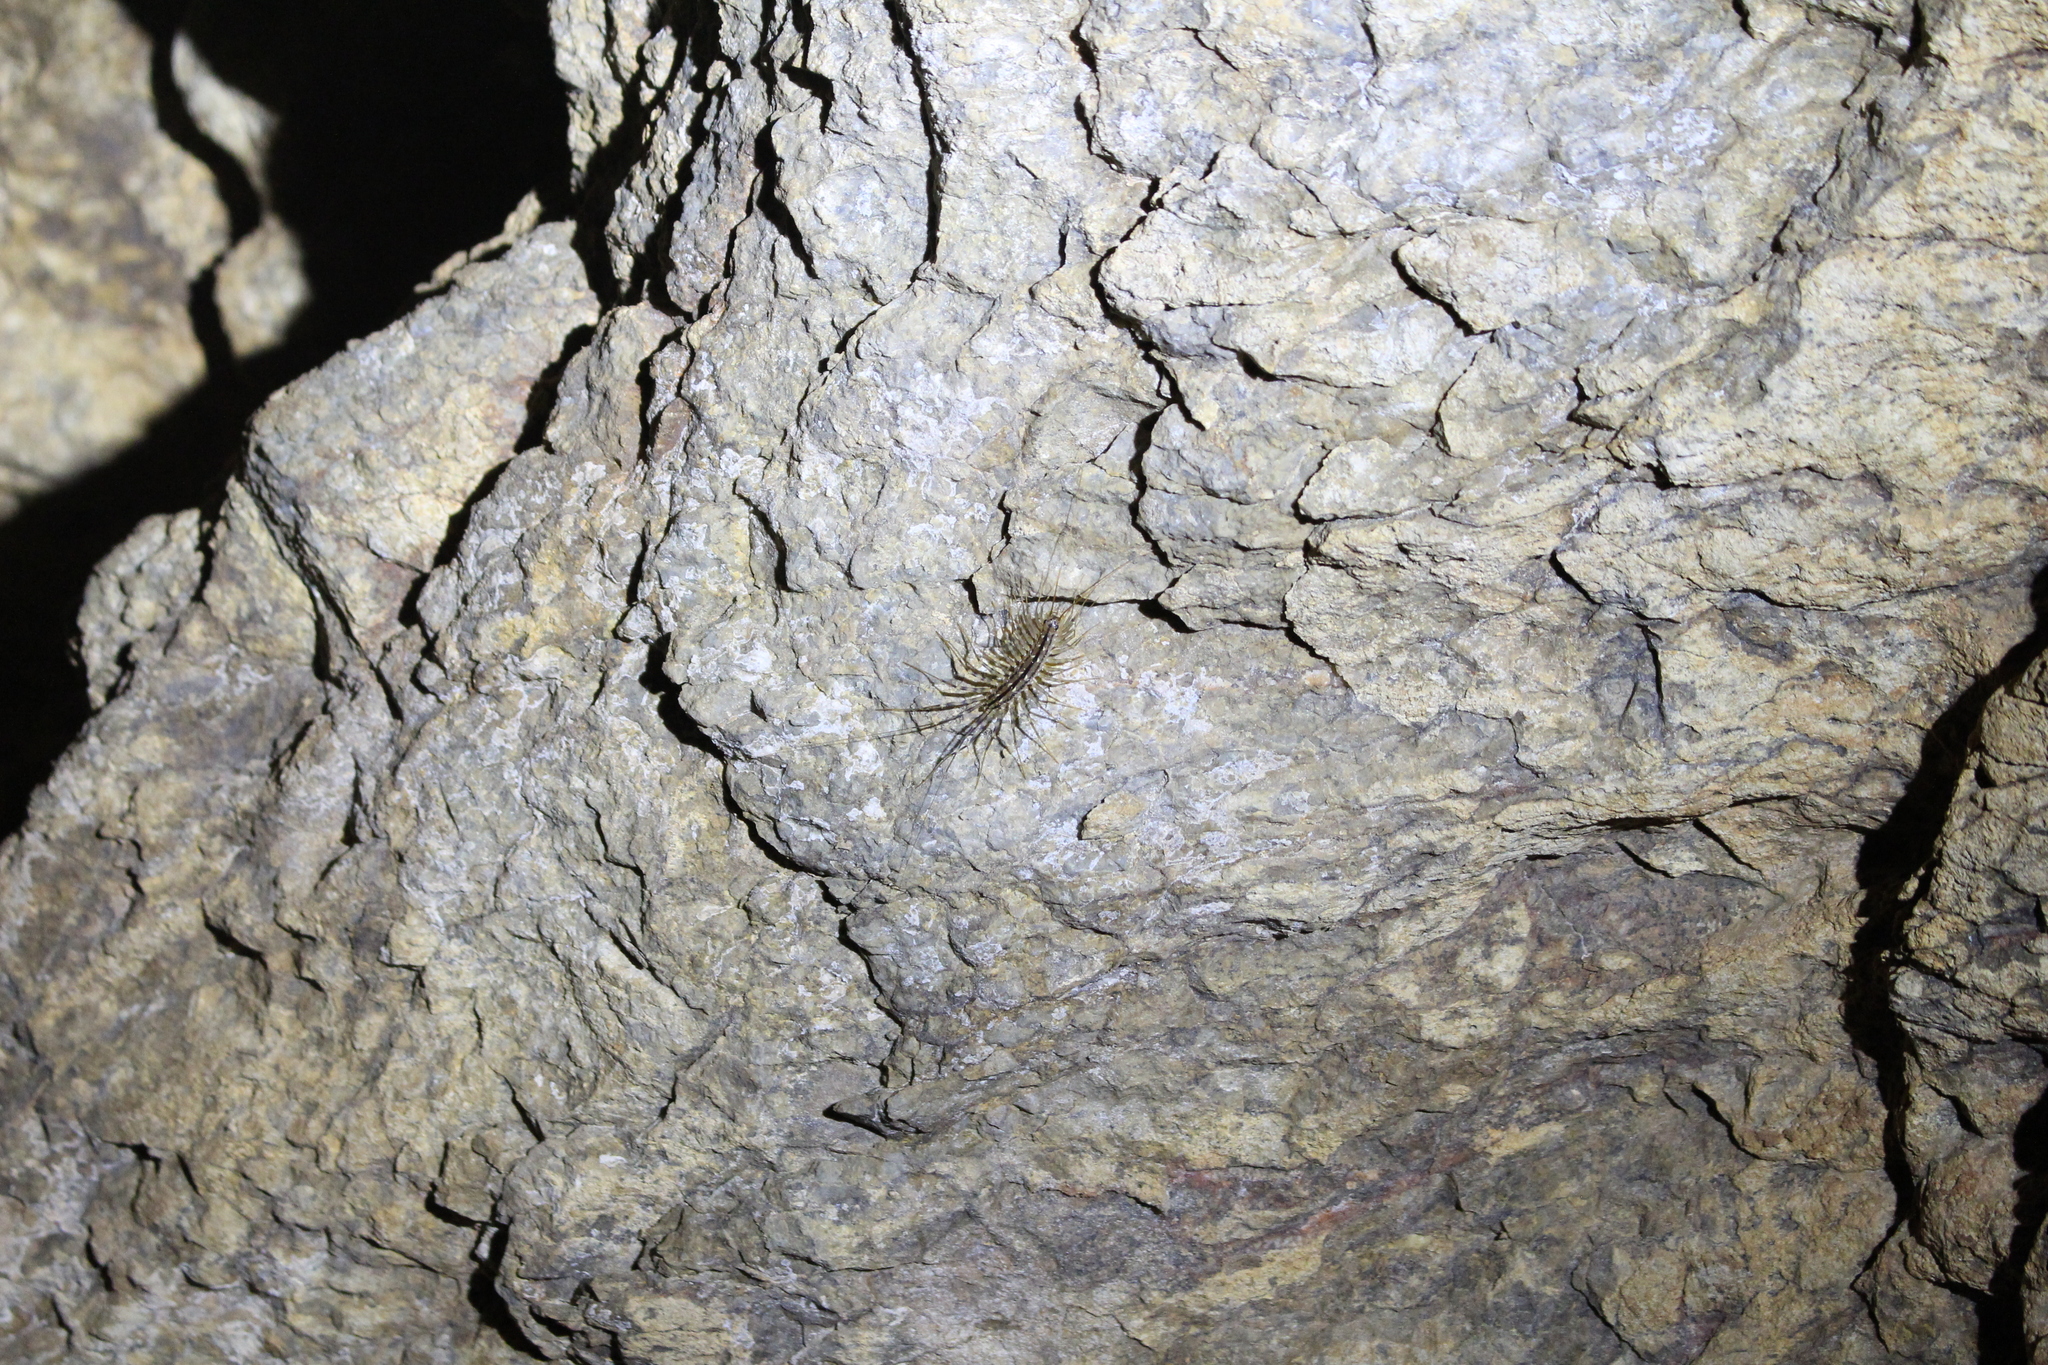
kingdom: Animalia
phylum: Arthropoda
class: Chilopoda
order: Scutigeromorpha
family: Scutigeridae
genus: Scutigera
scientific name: Scutigera coleoptrata
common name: House centipede
